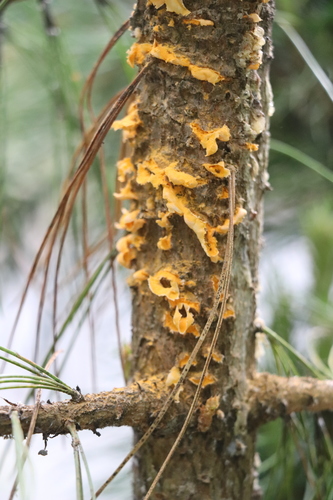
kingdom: Fungi
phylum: Basidiomycota
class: Pucciniomycetes
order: Pucciniales
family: Cronartiaceae
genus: Cronartium
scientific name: Cronartium ribicola
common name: White pine blister rust
